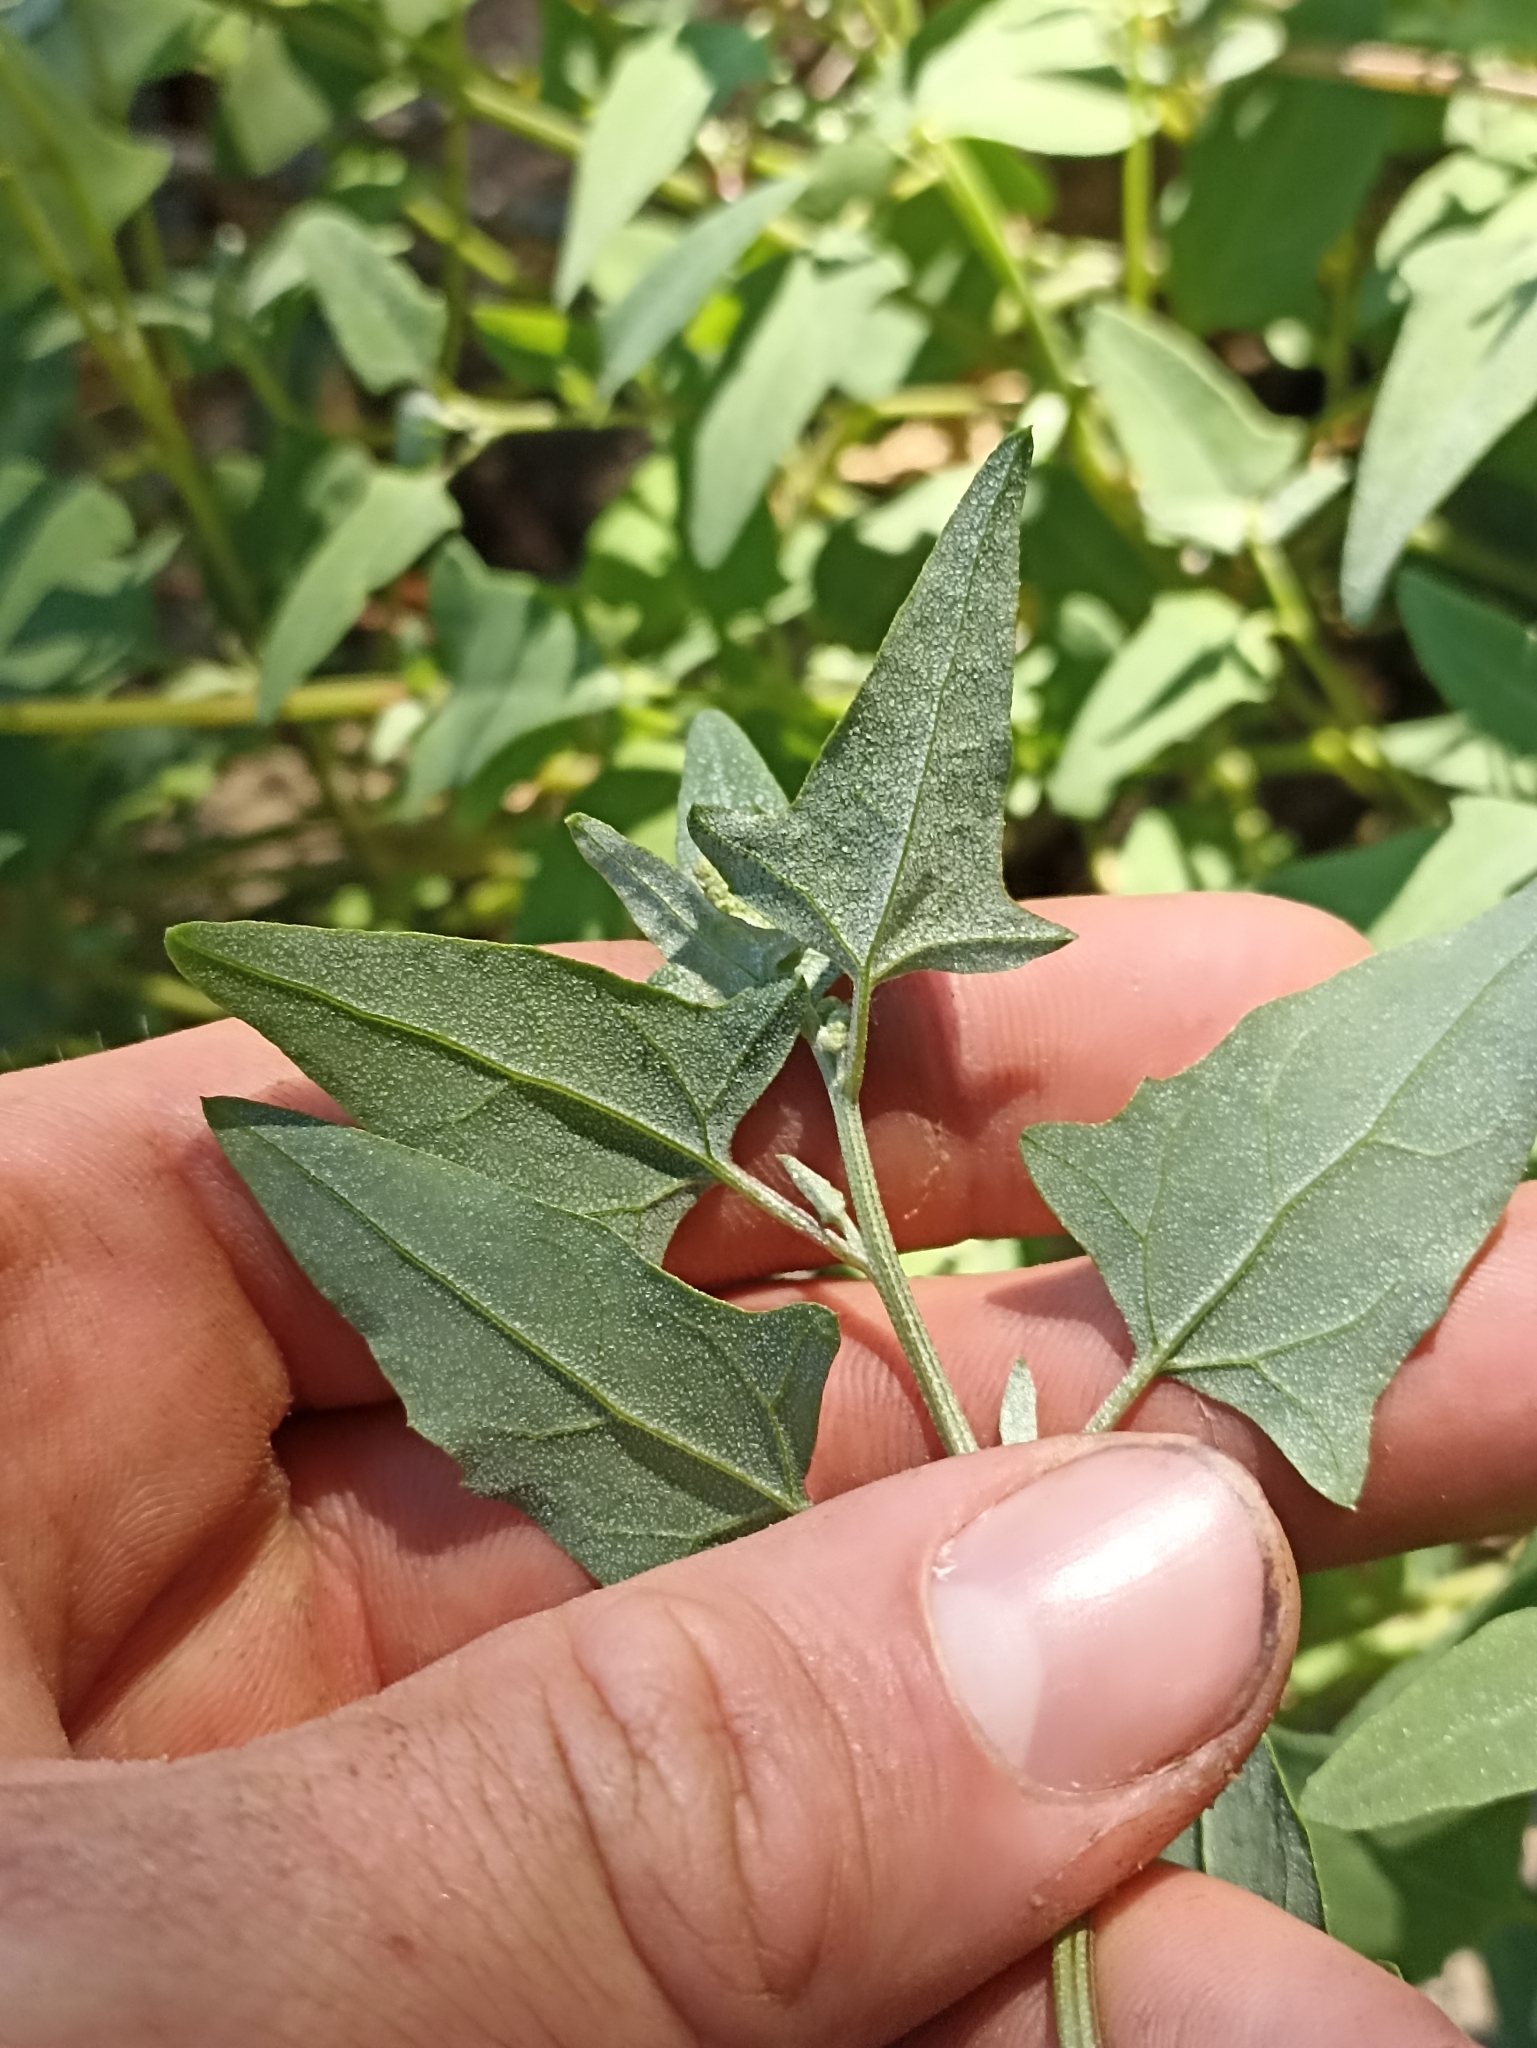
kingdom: Plantae
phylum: Tracheophyta
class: Magnoliopsida
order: Caryophyllales
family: Amaranthaceae
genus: Atriplex
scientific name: Atriplex prostrata
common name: Spear-leaved orache
